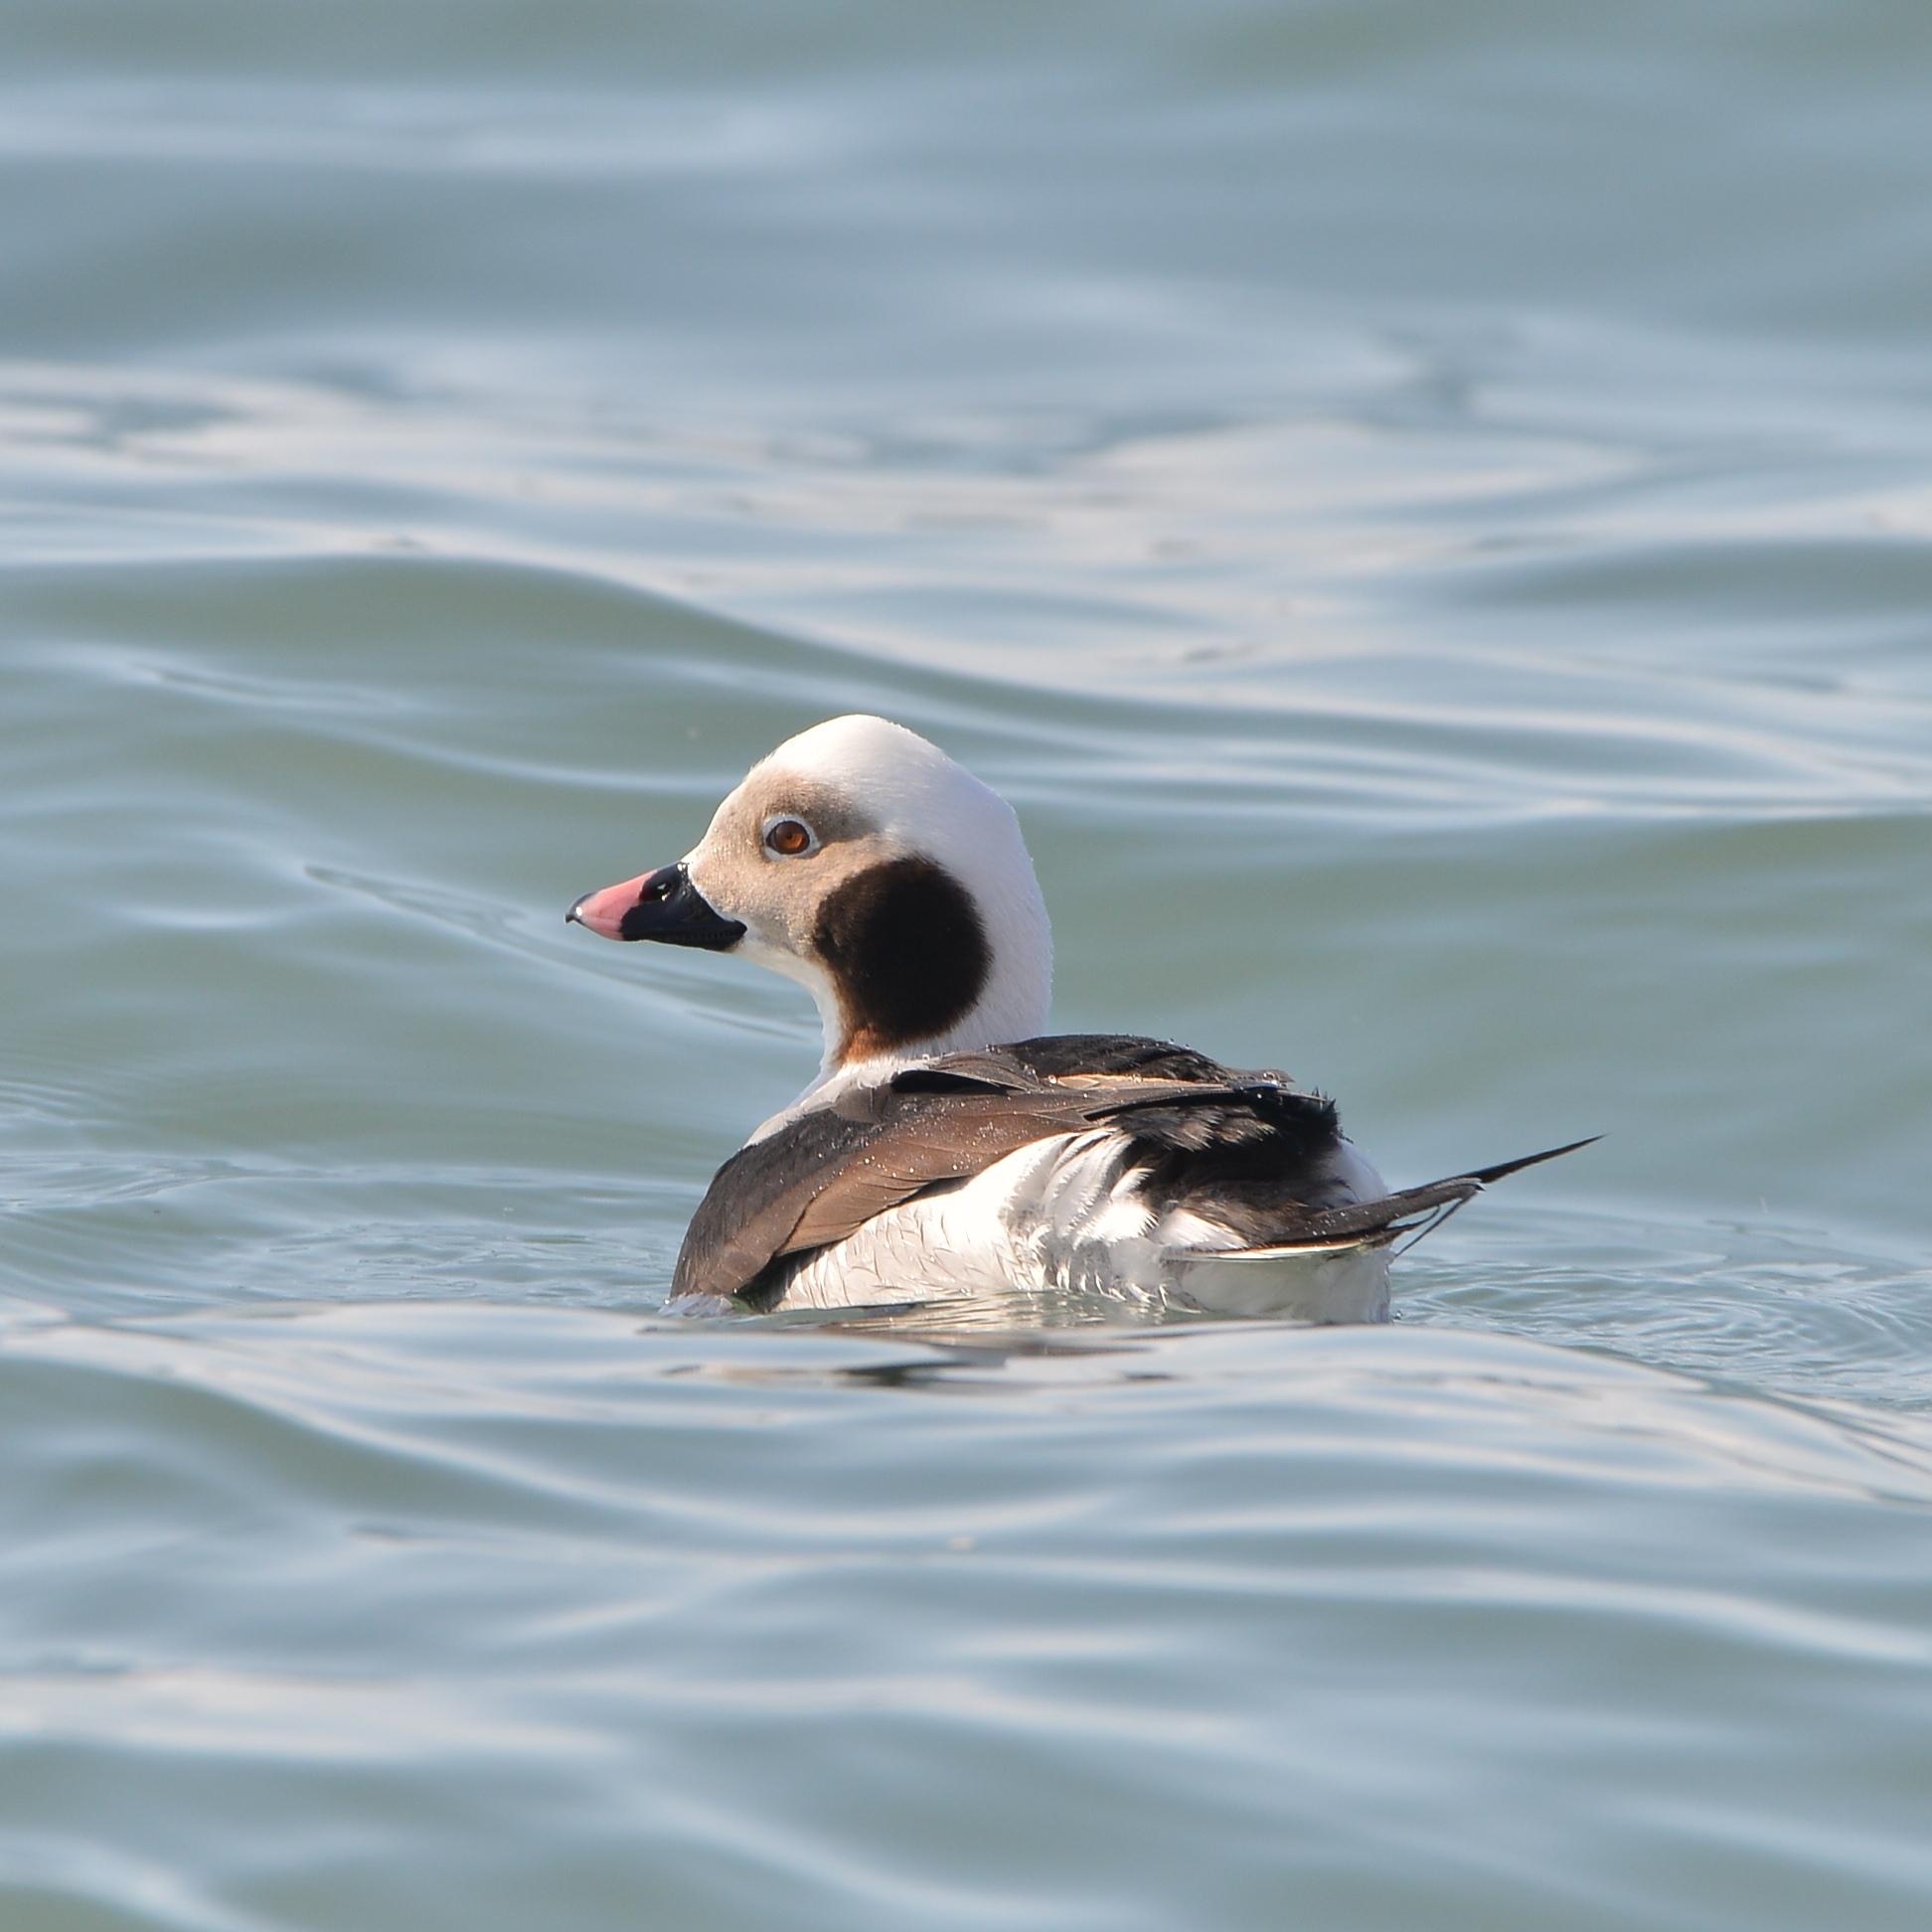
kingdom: Animalia
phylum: Chordata
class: Aves
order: Anseriformes
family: Anatidae
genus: Clangula
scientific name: Clangula hyemalis
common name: Long-tailed duck
